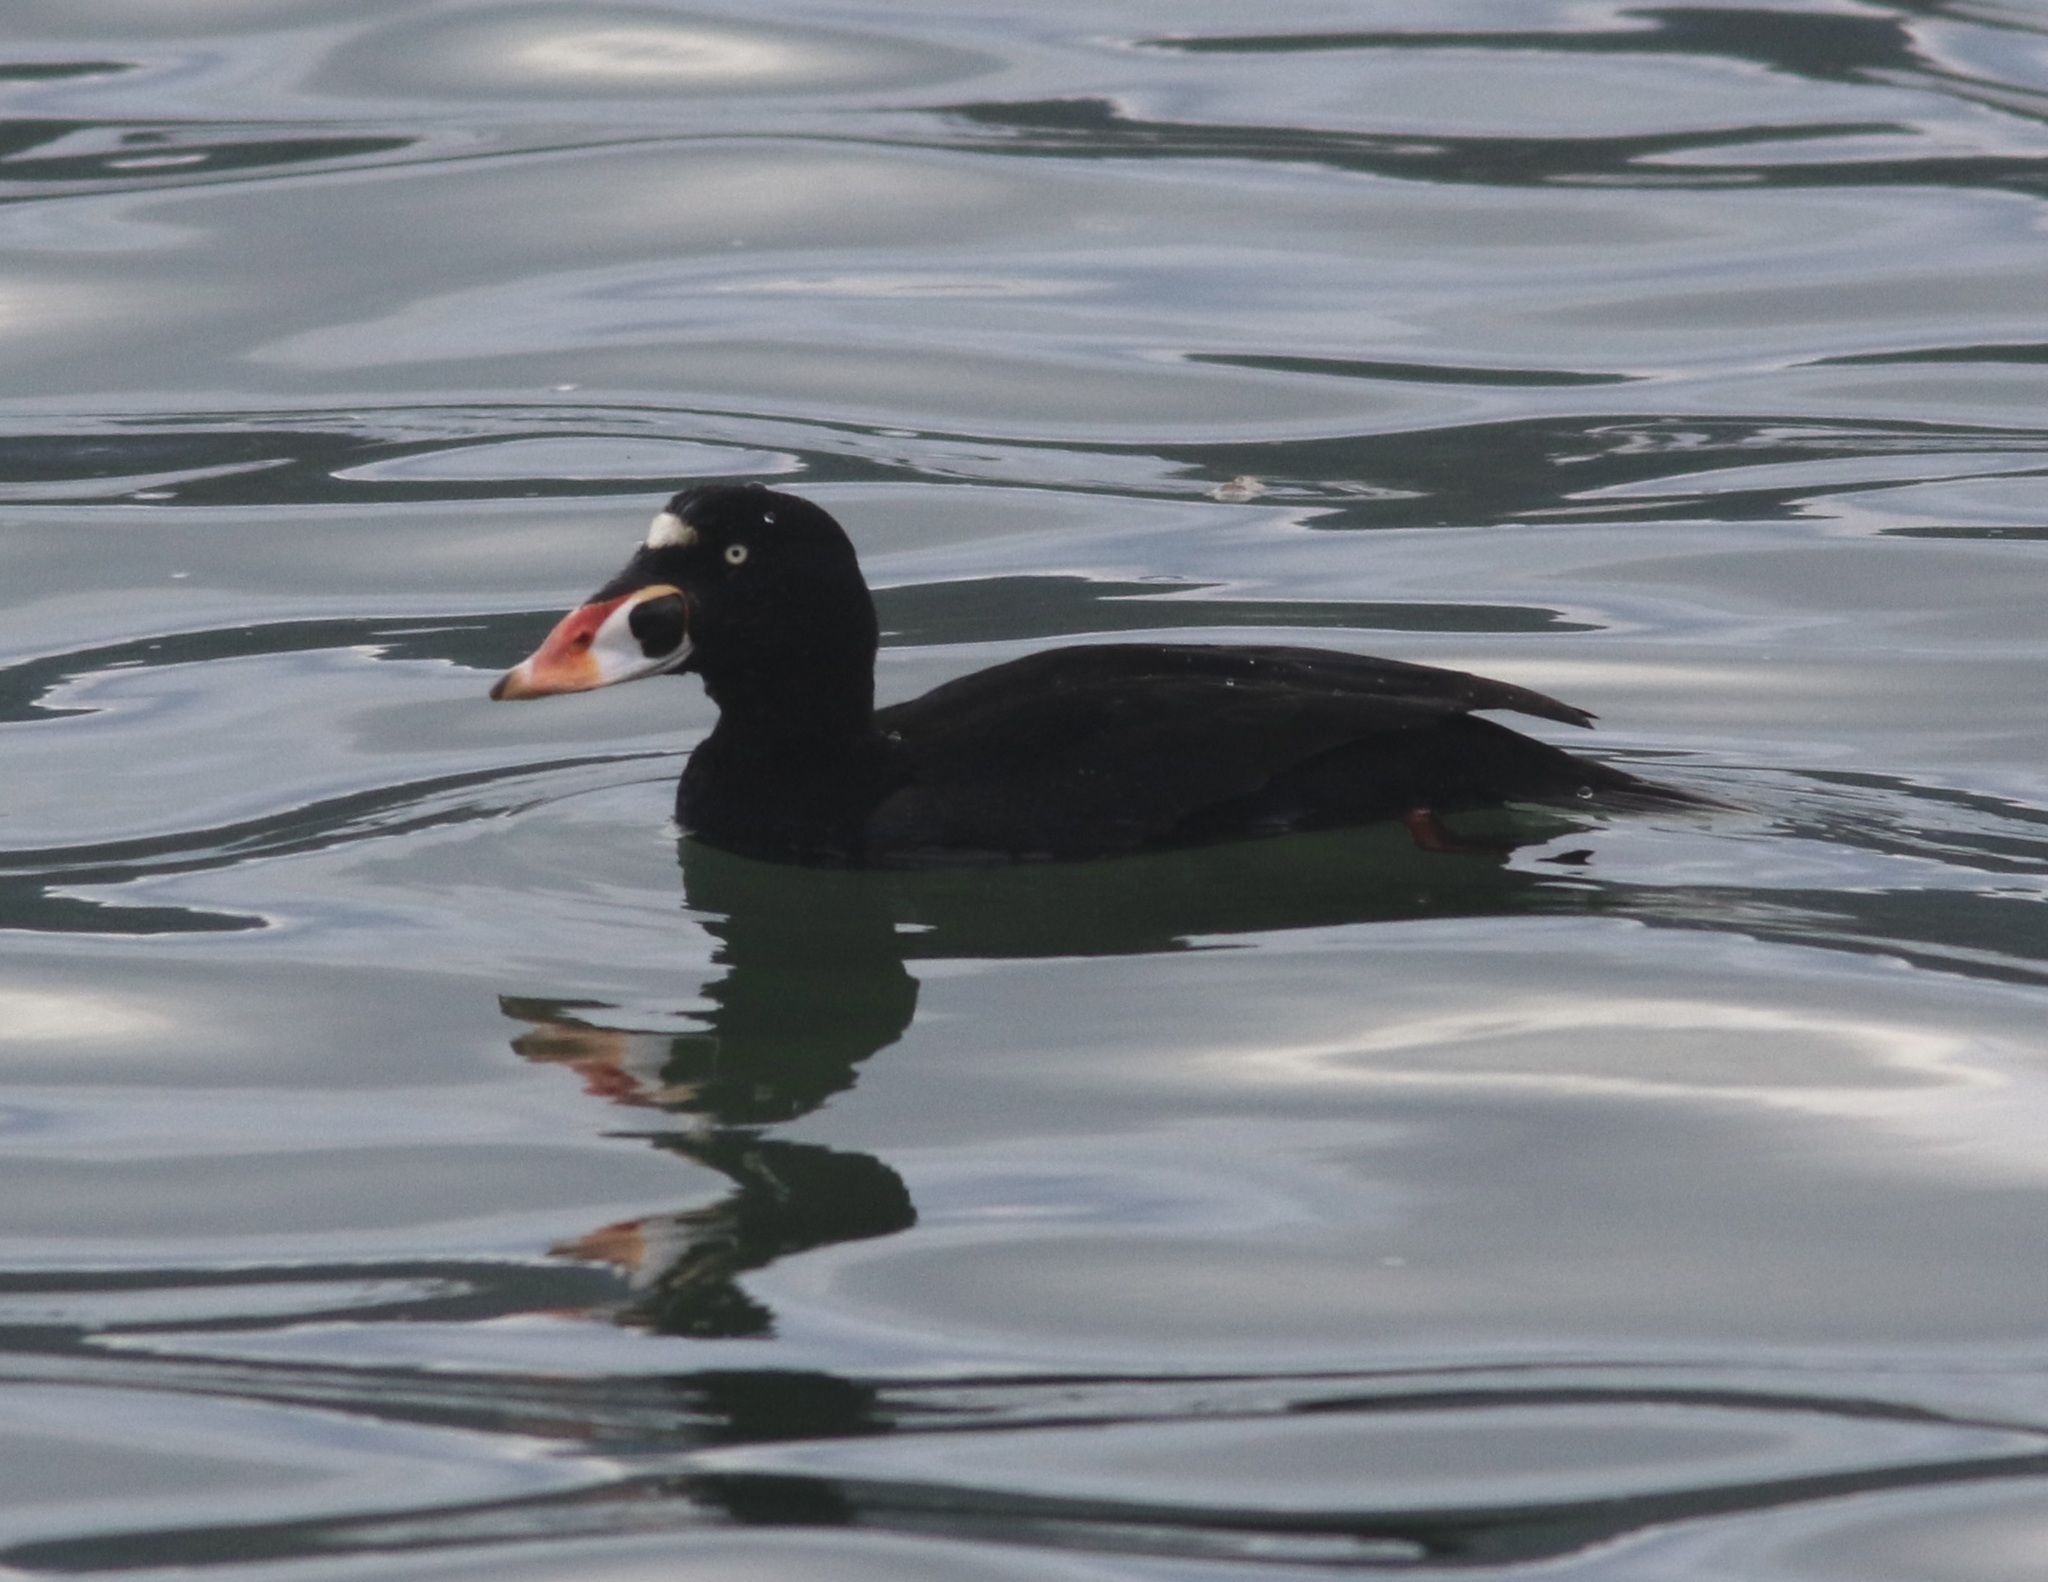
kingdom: Animalia
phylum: Chordata
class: Aves
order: Anseriformes
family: Anatidae
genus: Melanitta
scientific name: Melanitta perspicillata
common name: Surf scoter
